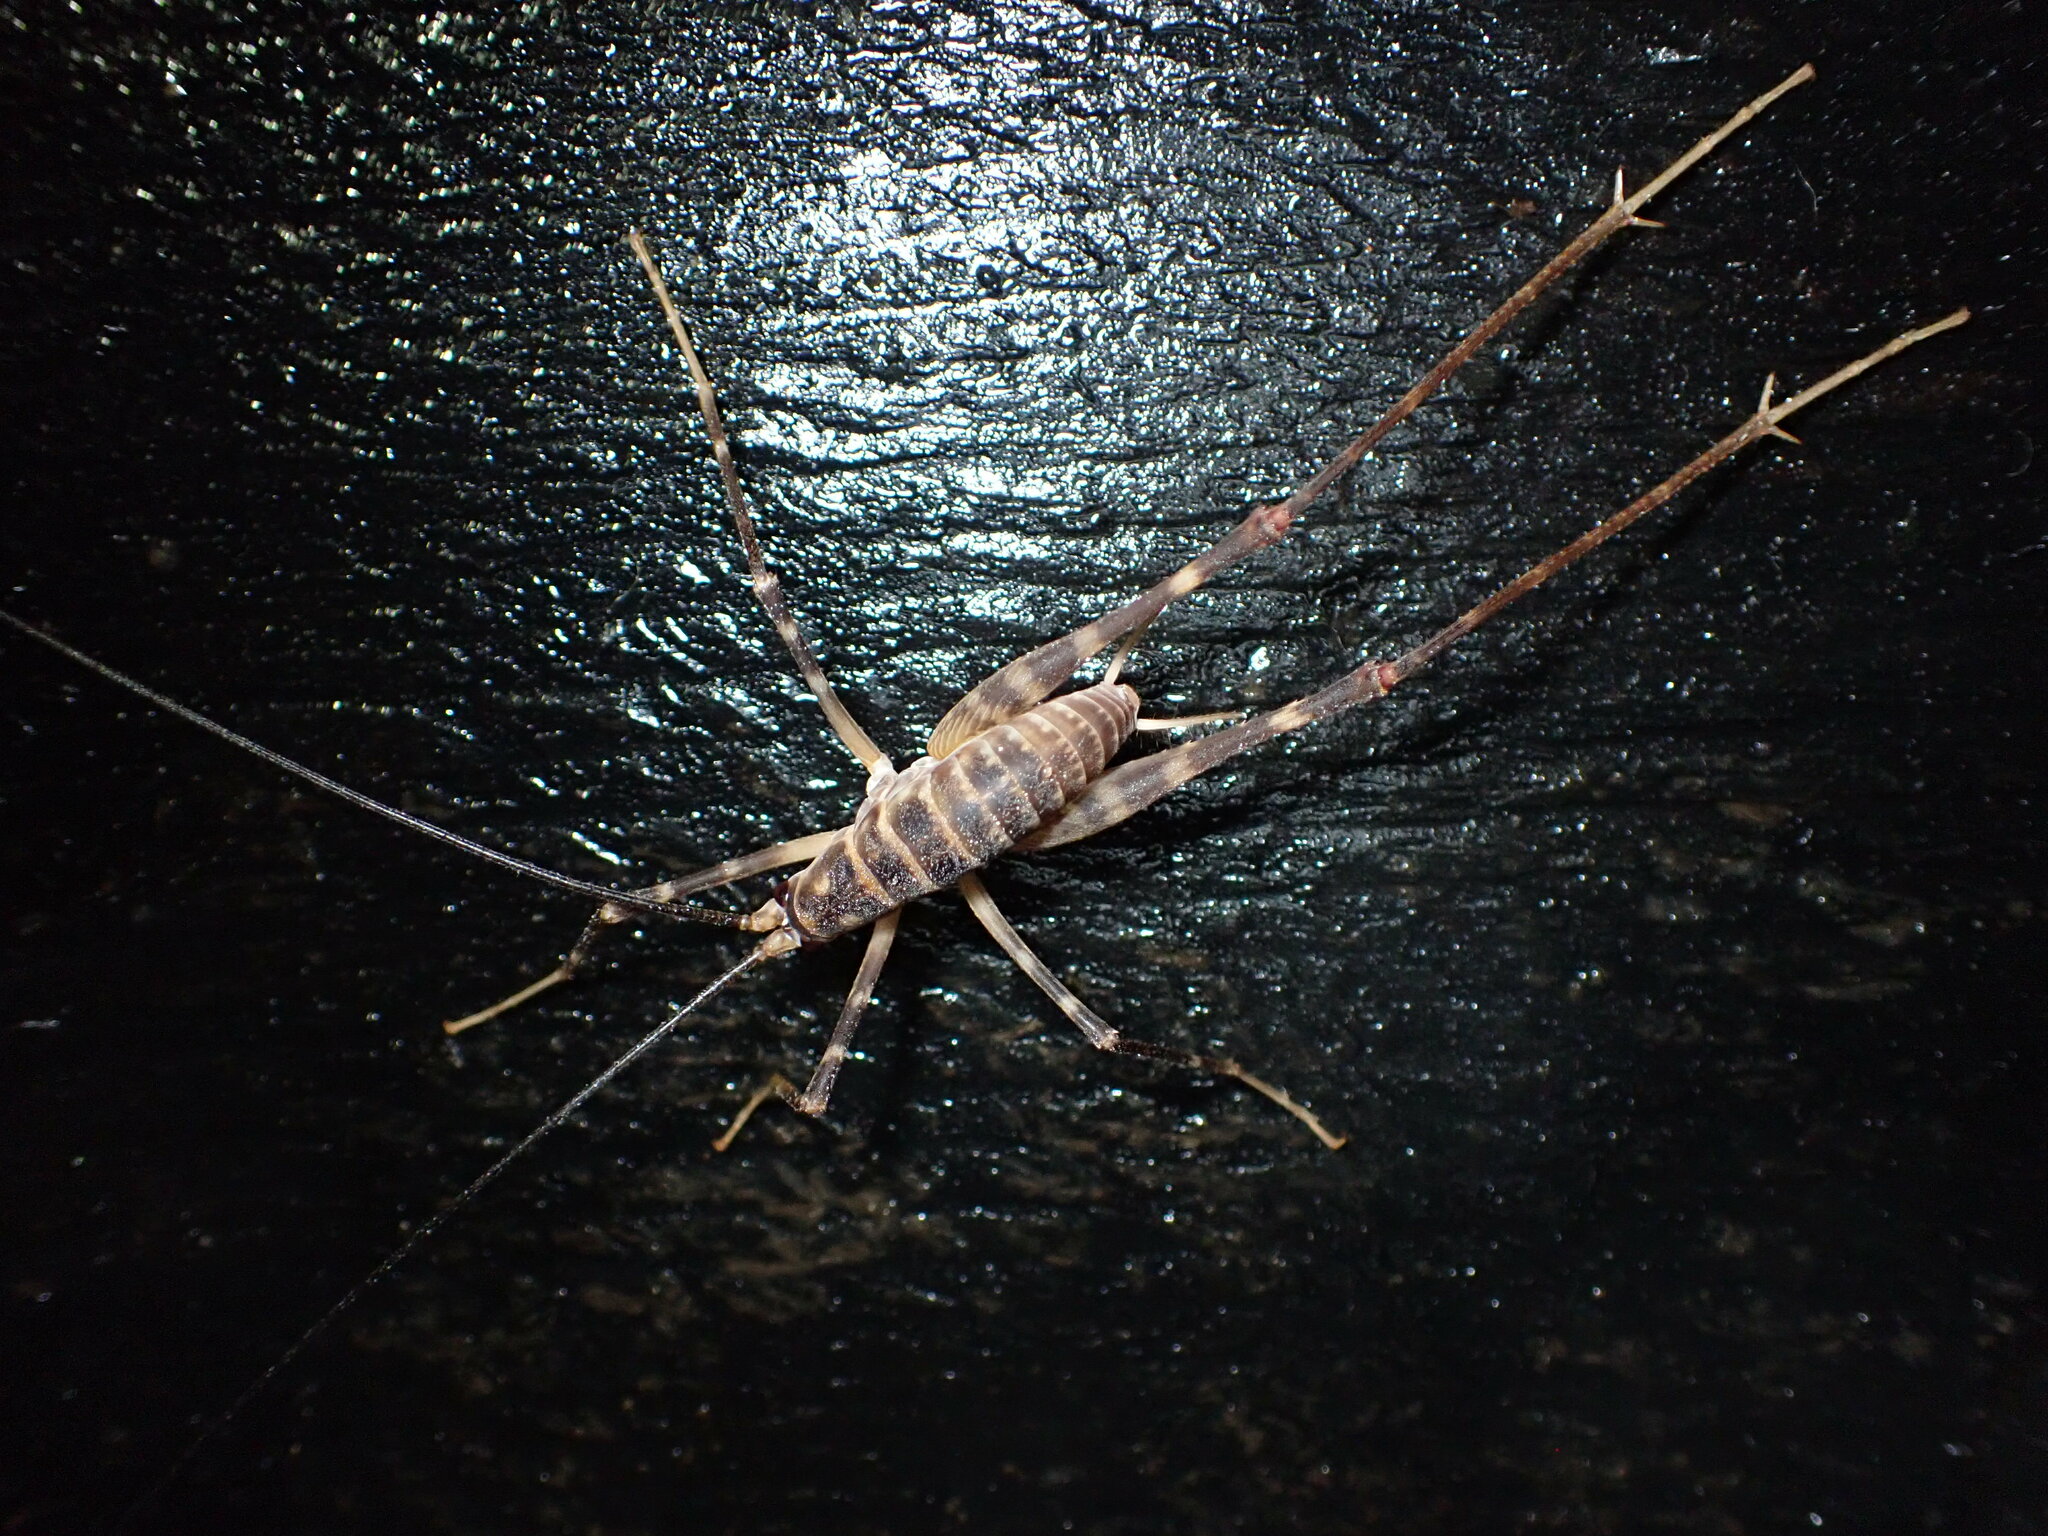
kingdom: Animalia
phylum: Arthropoda
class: Insecta
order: Orthoptera
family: Rhaphidophoridae
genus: Pachyrhamma
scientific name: Pachyrhamma acanthocera
